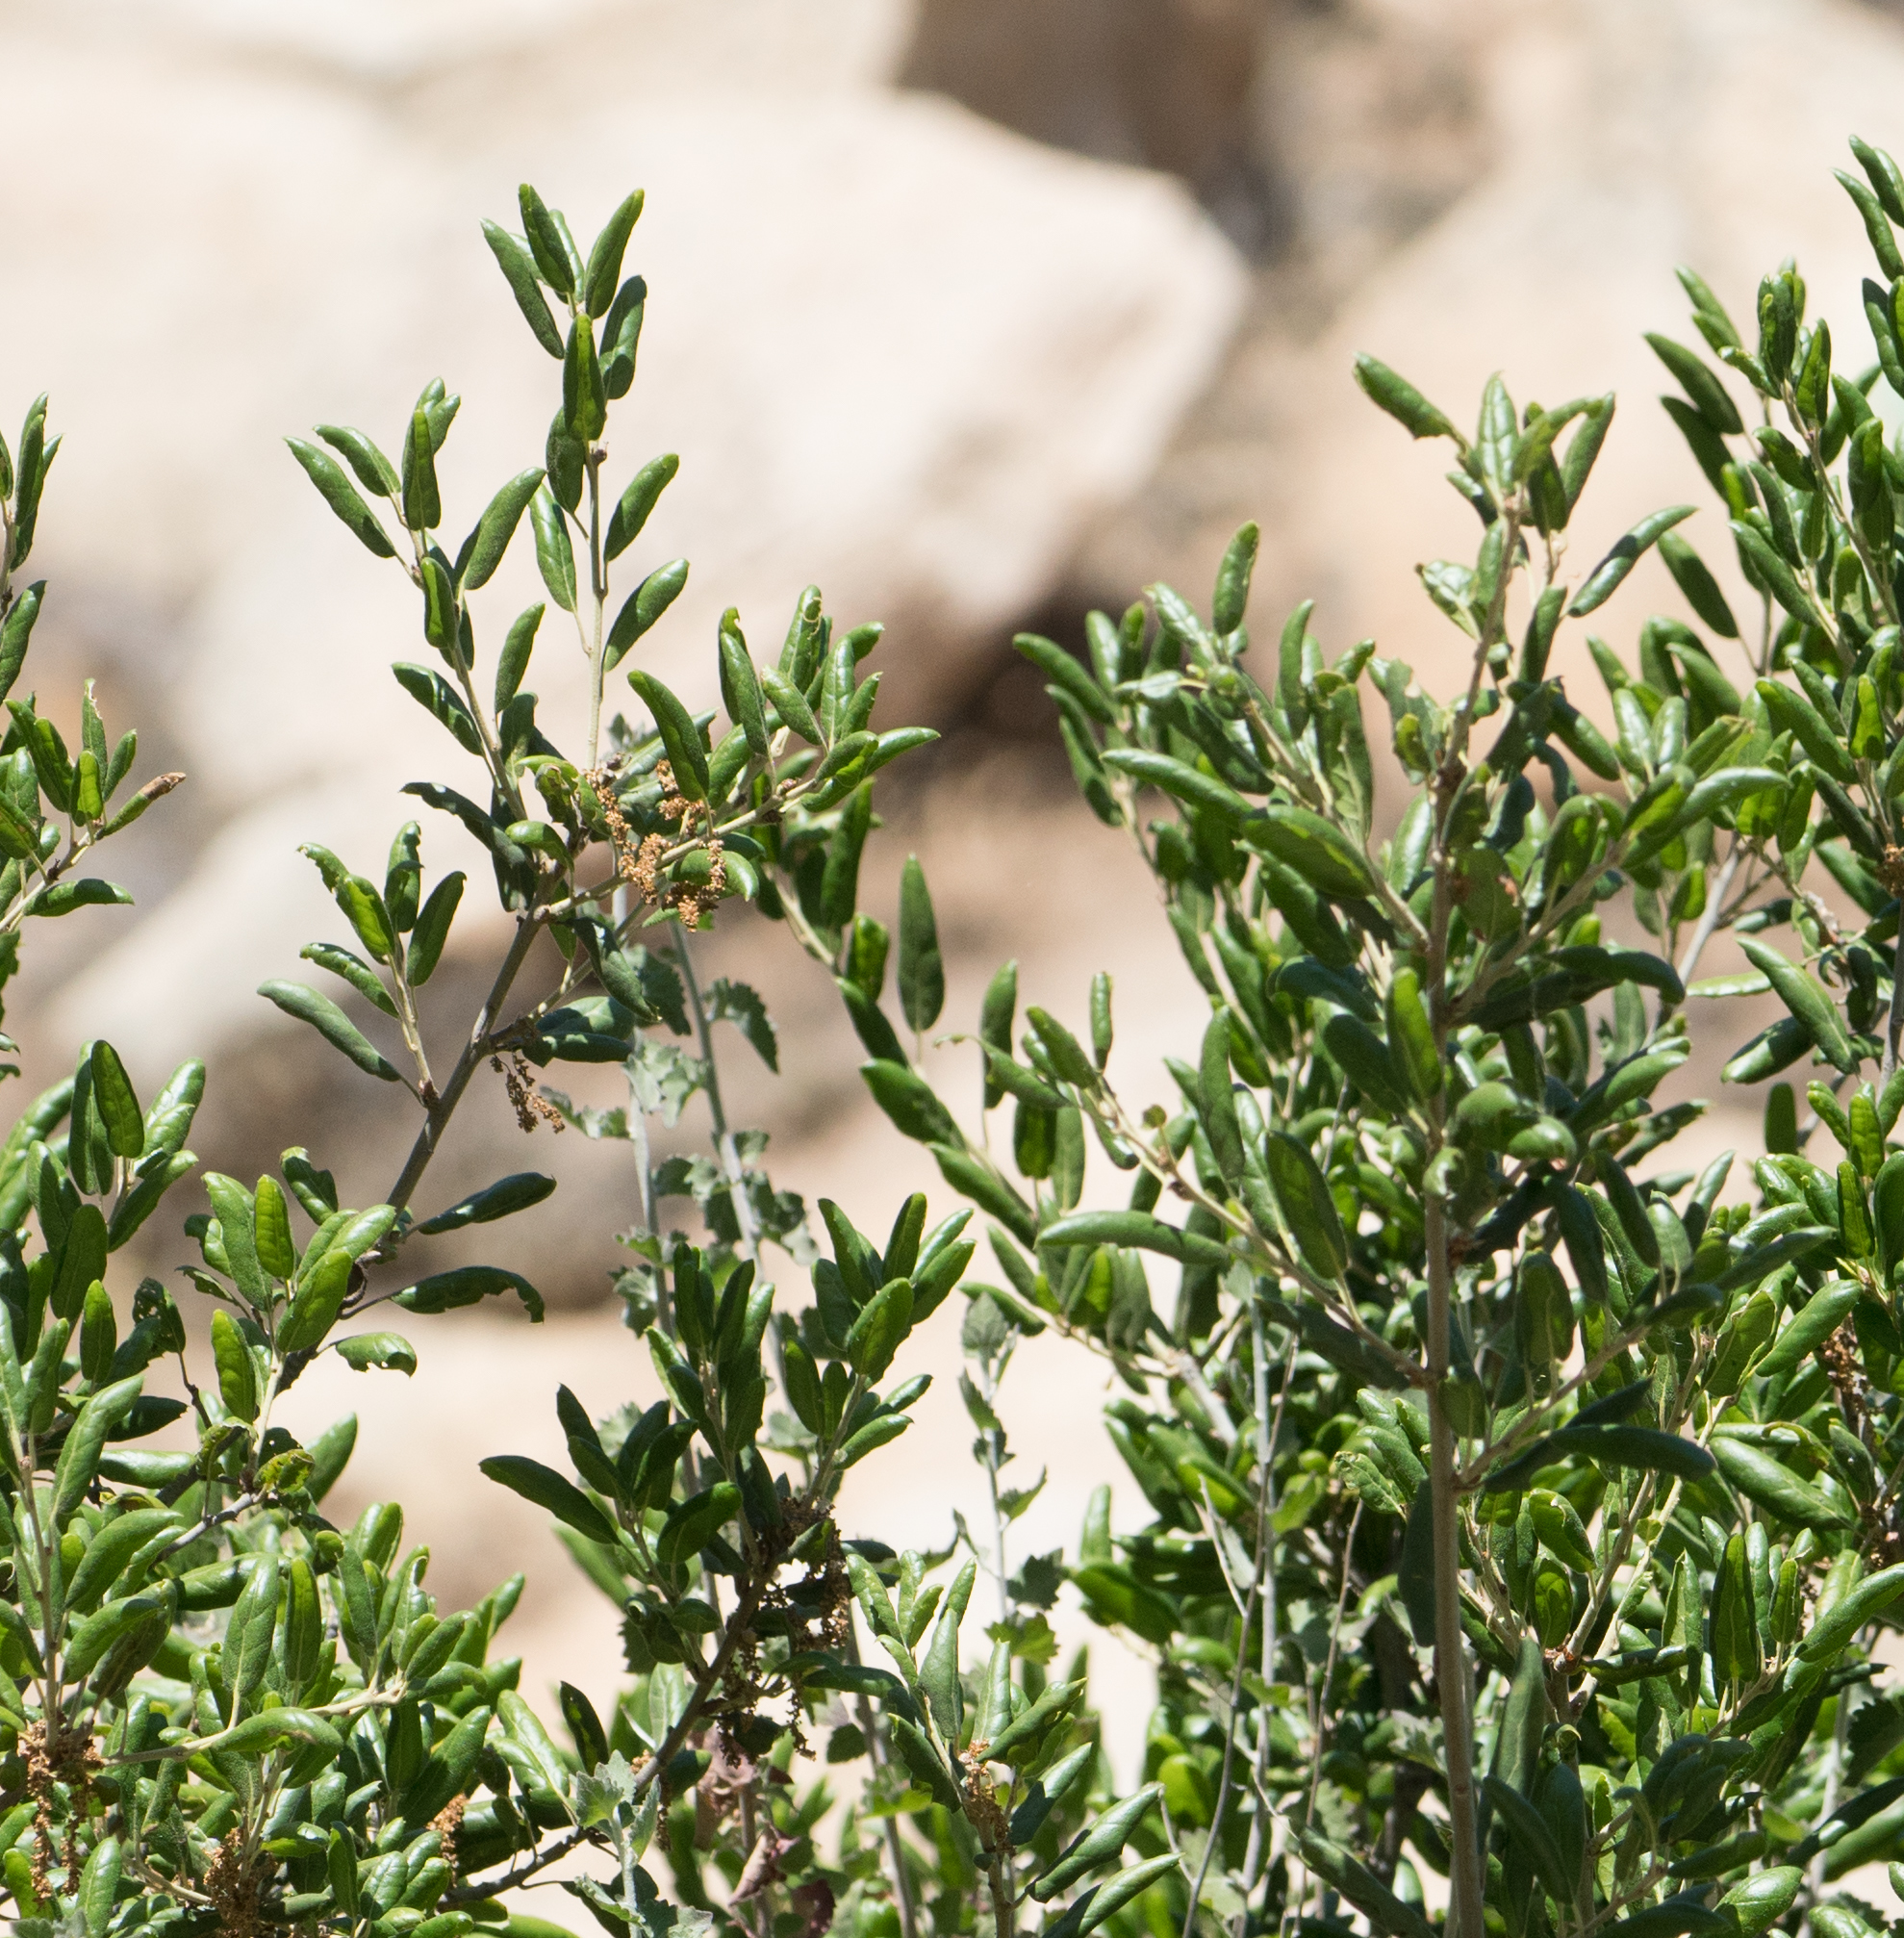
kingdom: Plantae
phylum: Tracheophyta
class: Magnoliopsida
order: Fagales
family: Fagaceae
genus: Quercus
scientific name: Quercus agrifolia
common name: California live oak
